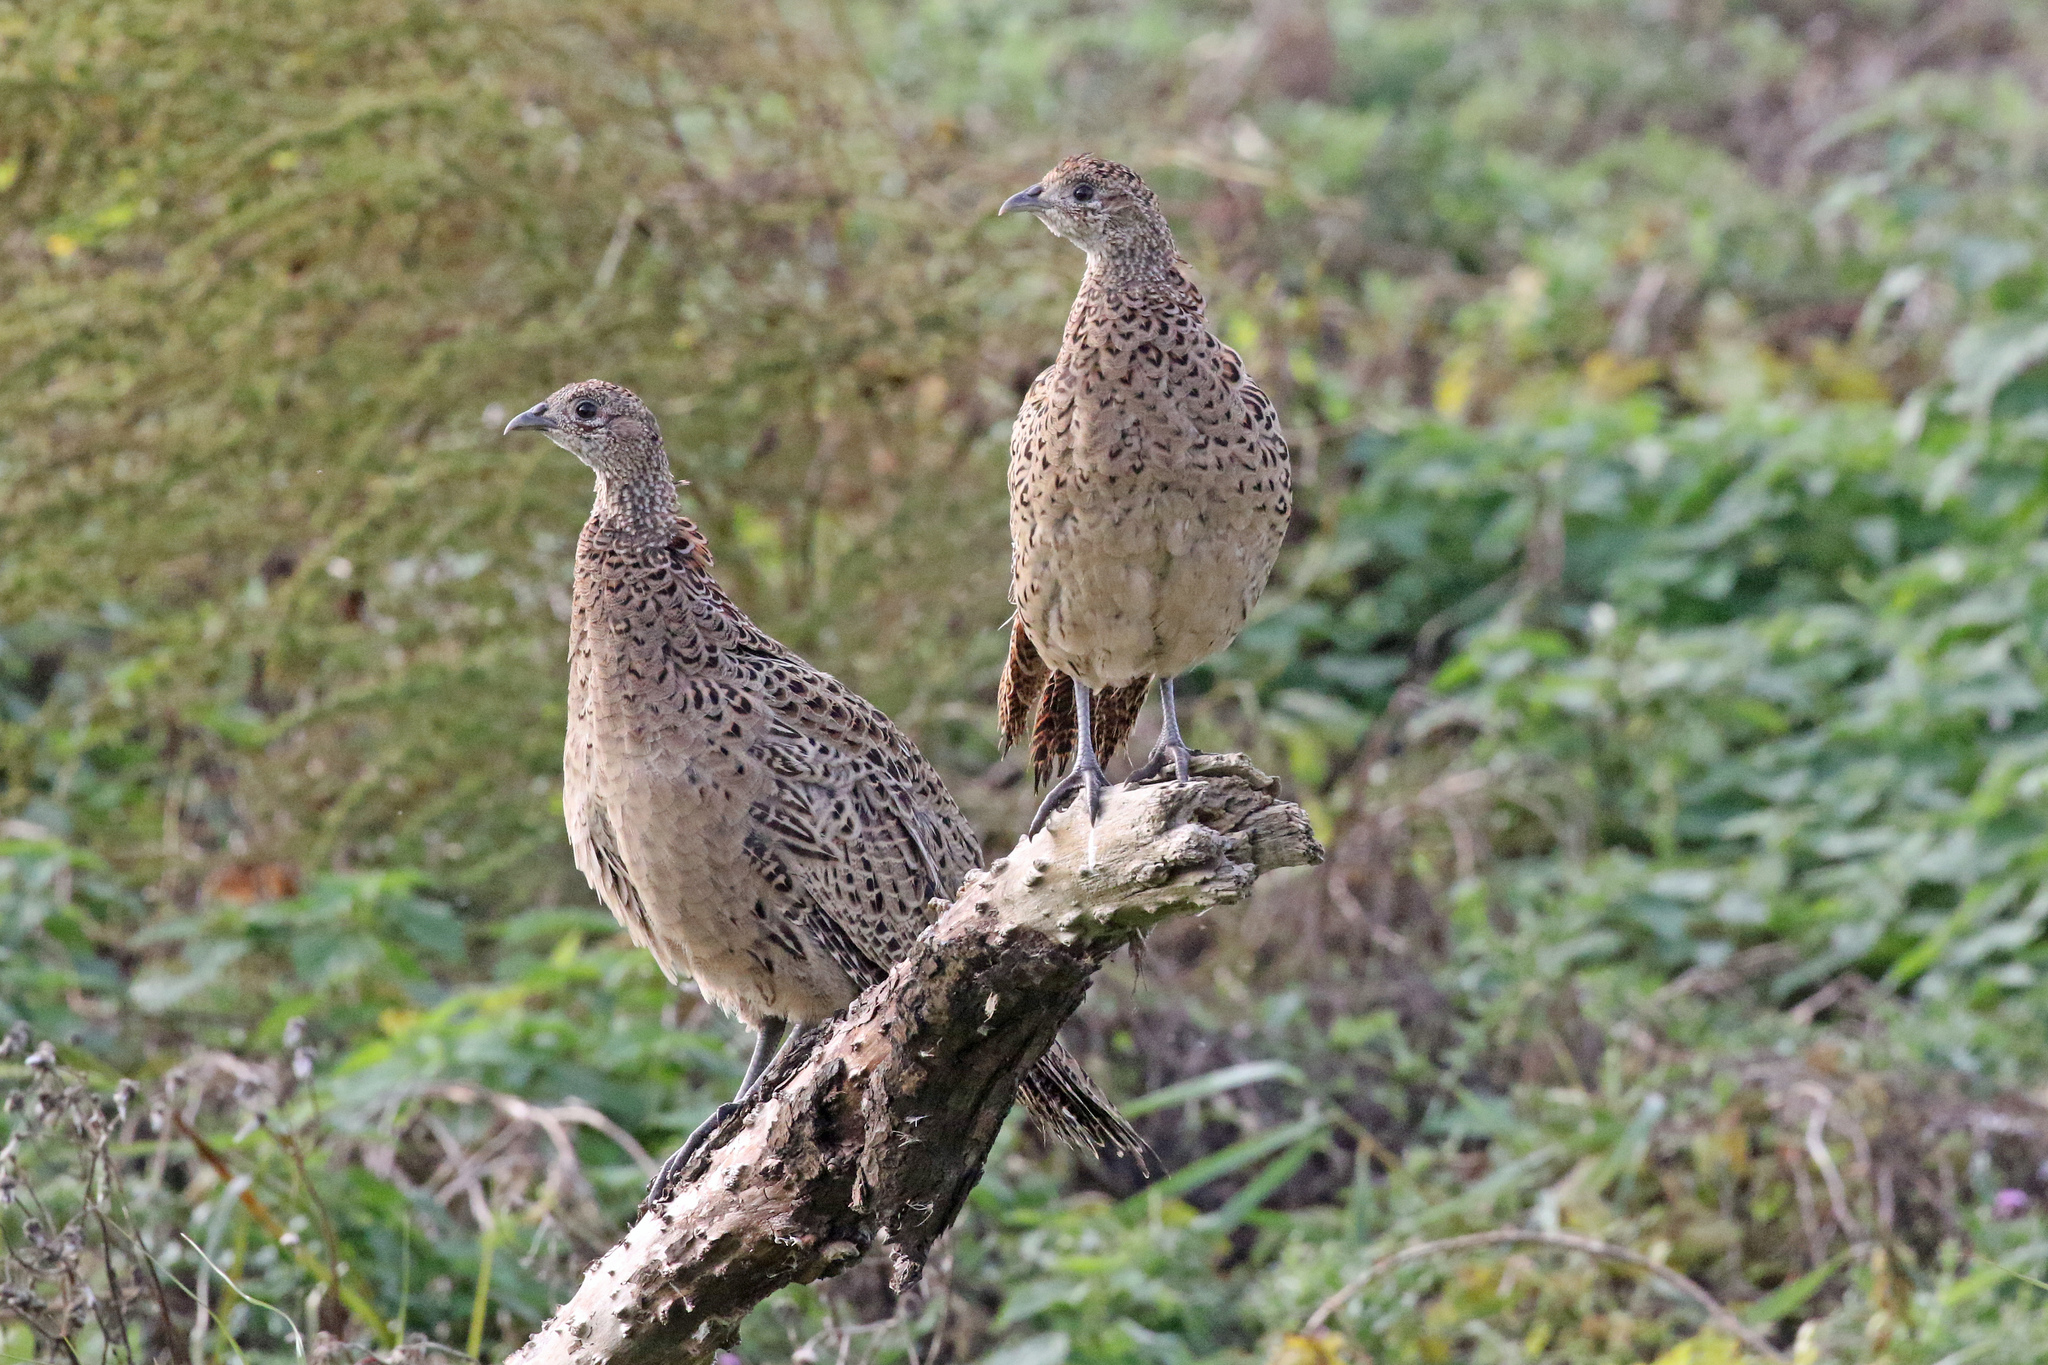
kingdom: Animalia
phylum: Chordata
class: Aves
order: Galliformes
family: Phasianidae
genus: Phasianus
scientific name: Phasianus colchicus
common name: Common pheasant
